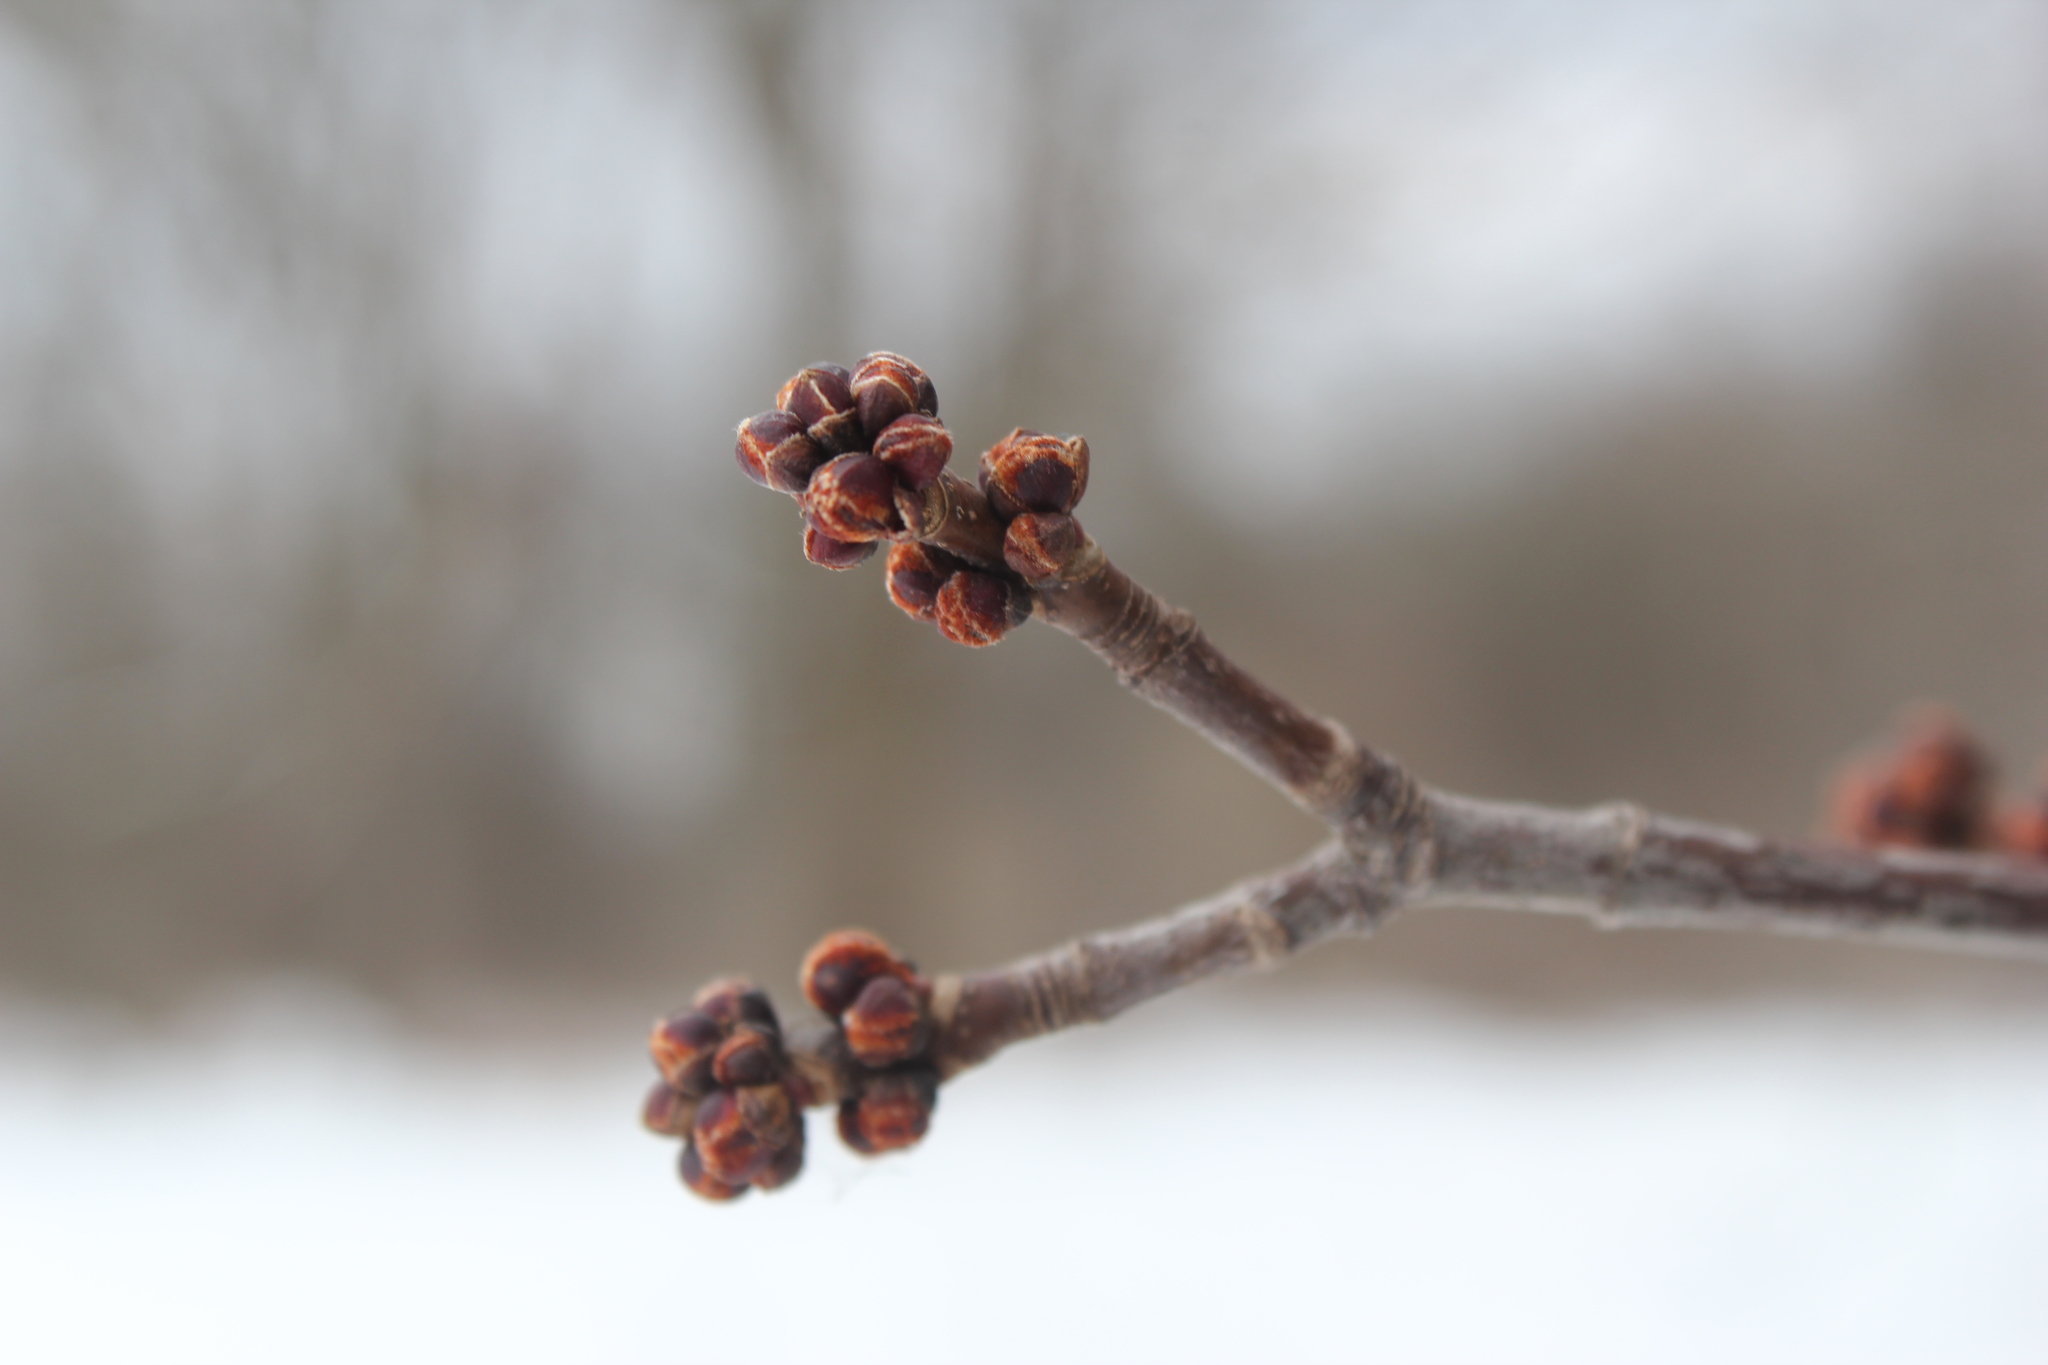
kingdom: Plantae
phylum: Tracheophyta
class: Magnoliopsida
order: Sapindales
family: Sapindaceae
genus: Acer
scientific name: Acer saccharinum
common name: Silver maple
